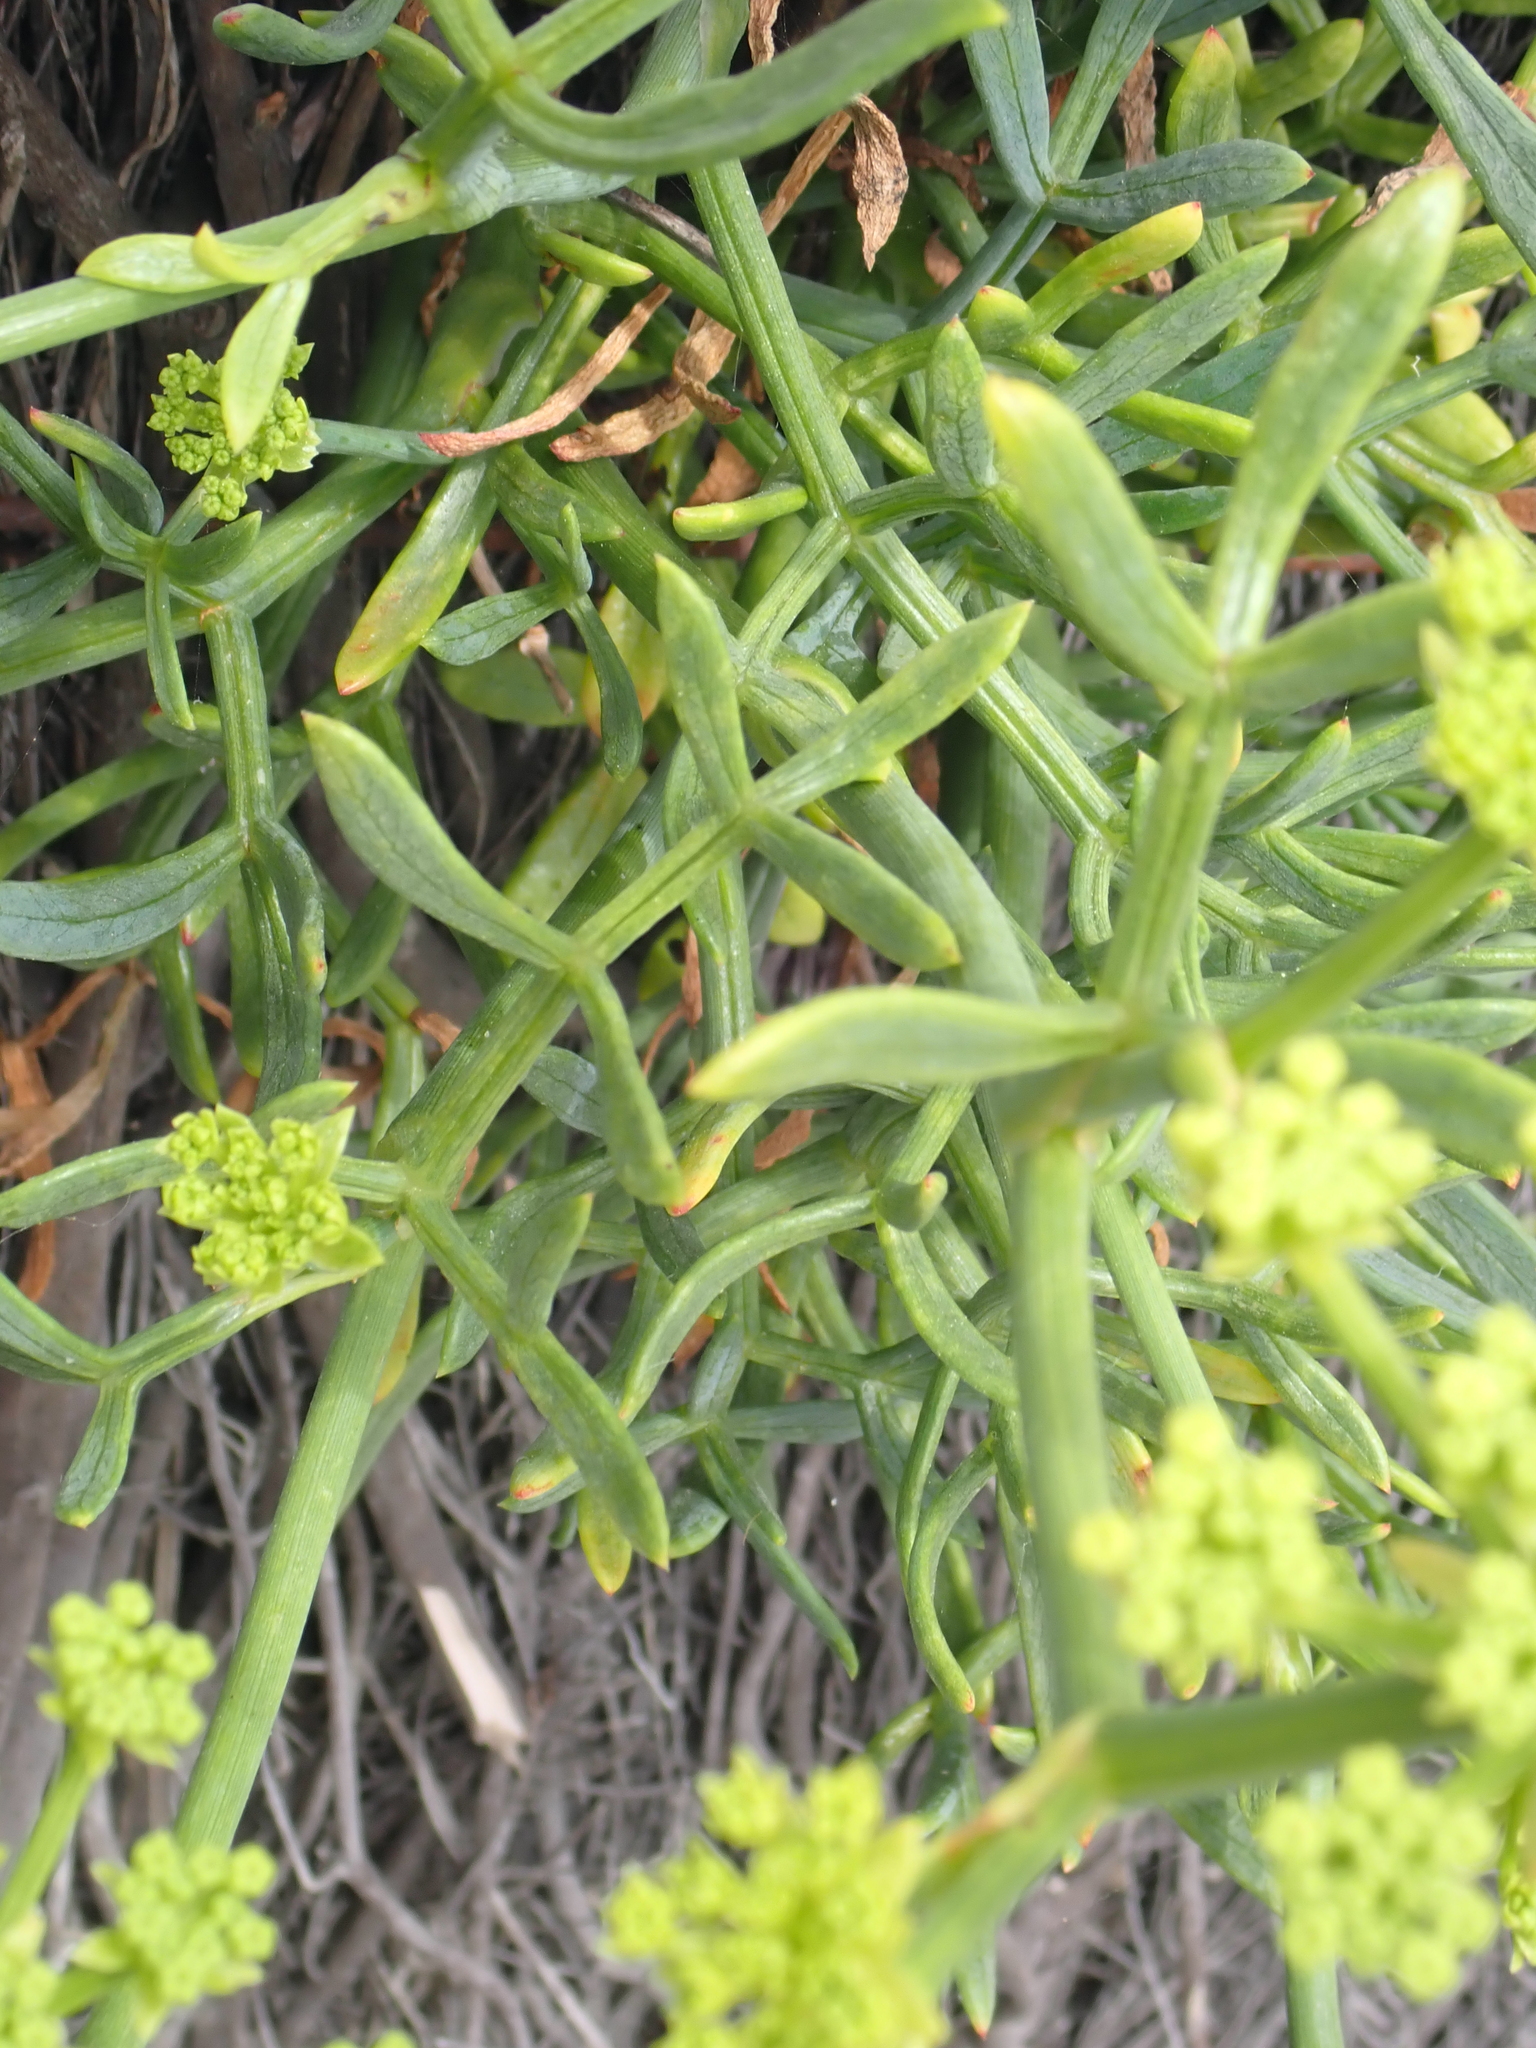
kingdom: Plantae
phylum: Tracheophyta
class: Magnoliopsida
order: Apiales
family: Apiaceae
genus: Crithmum
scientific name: Crithmum maritimum
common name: Rock samphire
